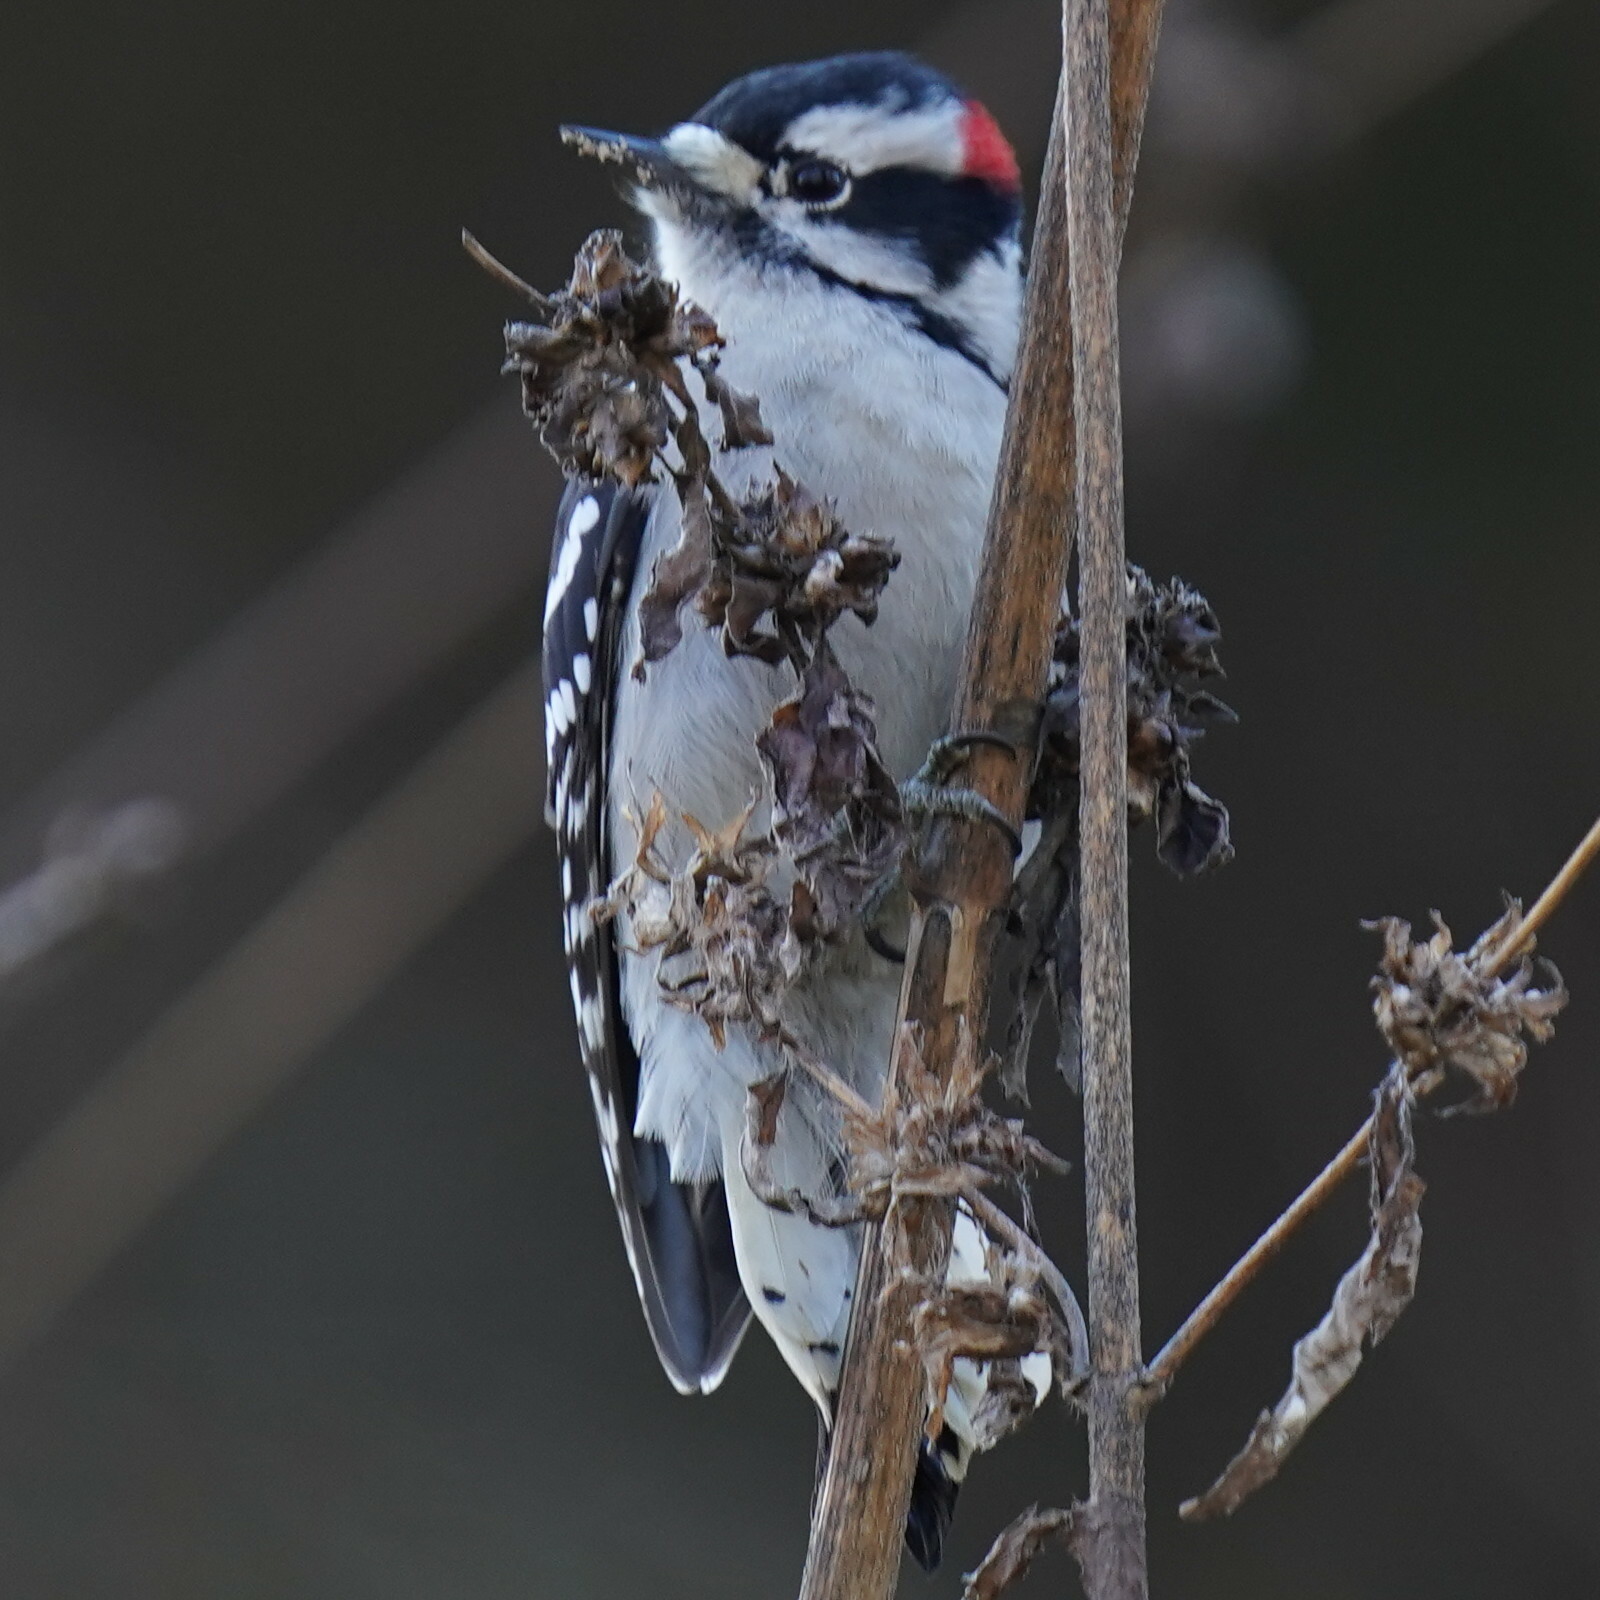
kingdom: Animalia
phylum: Chordata
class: Aves
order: Piciformes
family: Picidae
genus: Dryobates
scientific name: Dryobates pubescens
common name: Downy woodpecker
